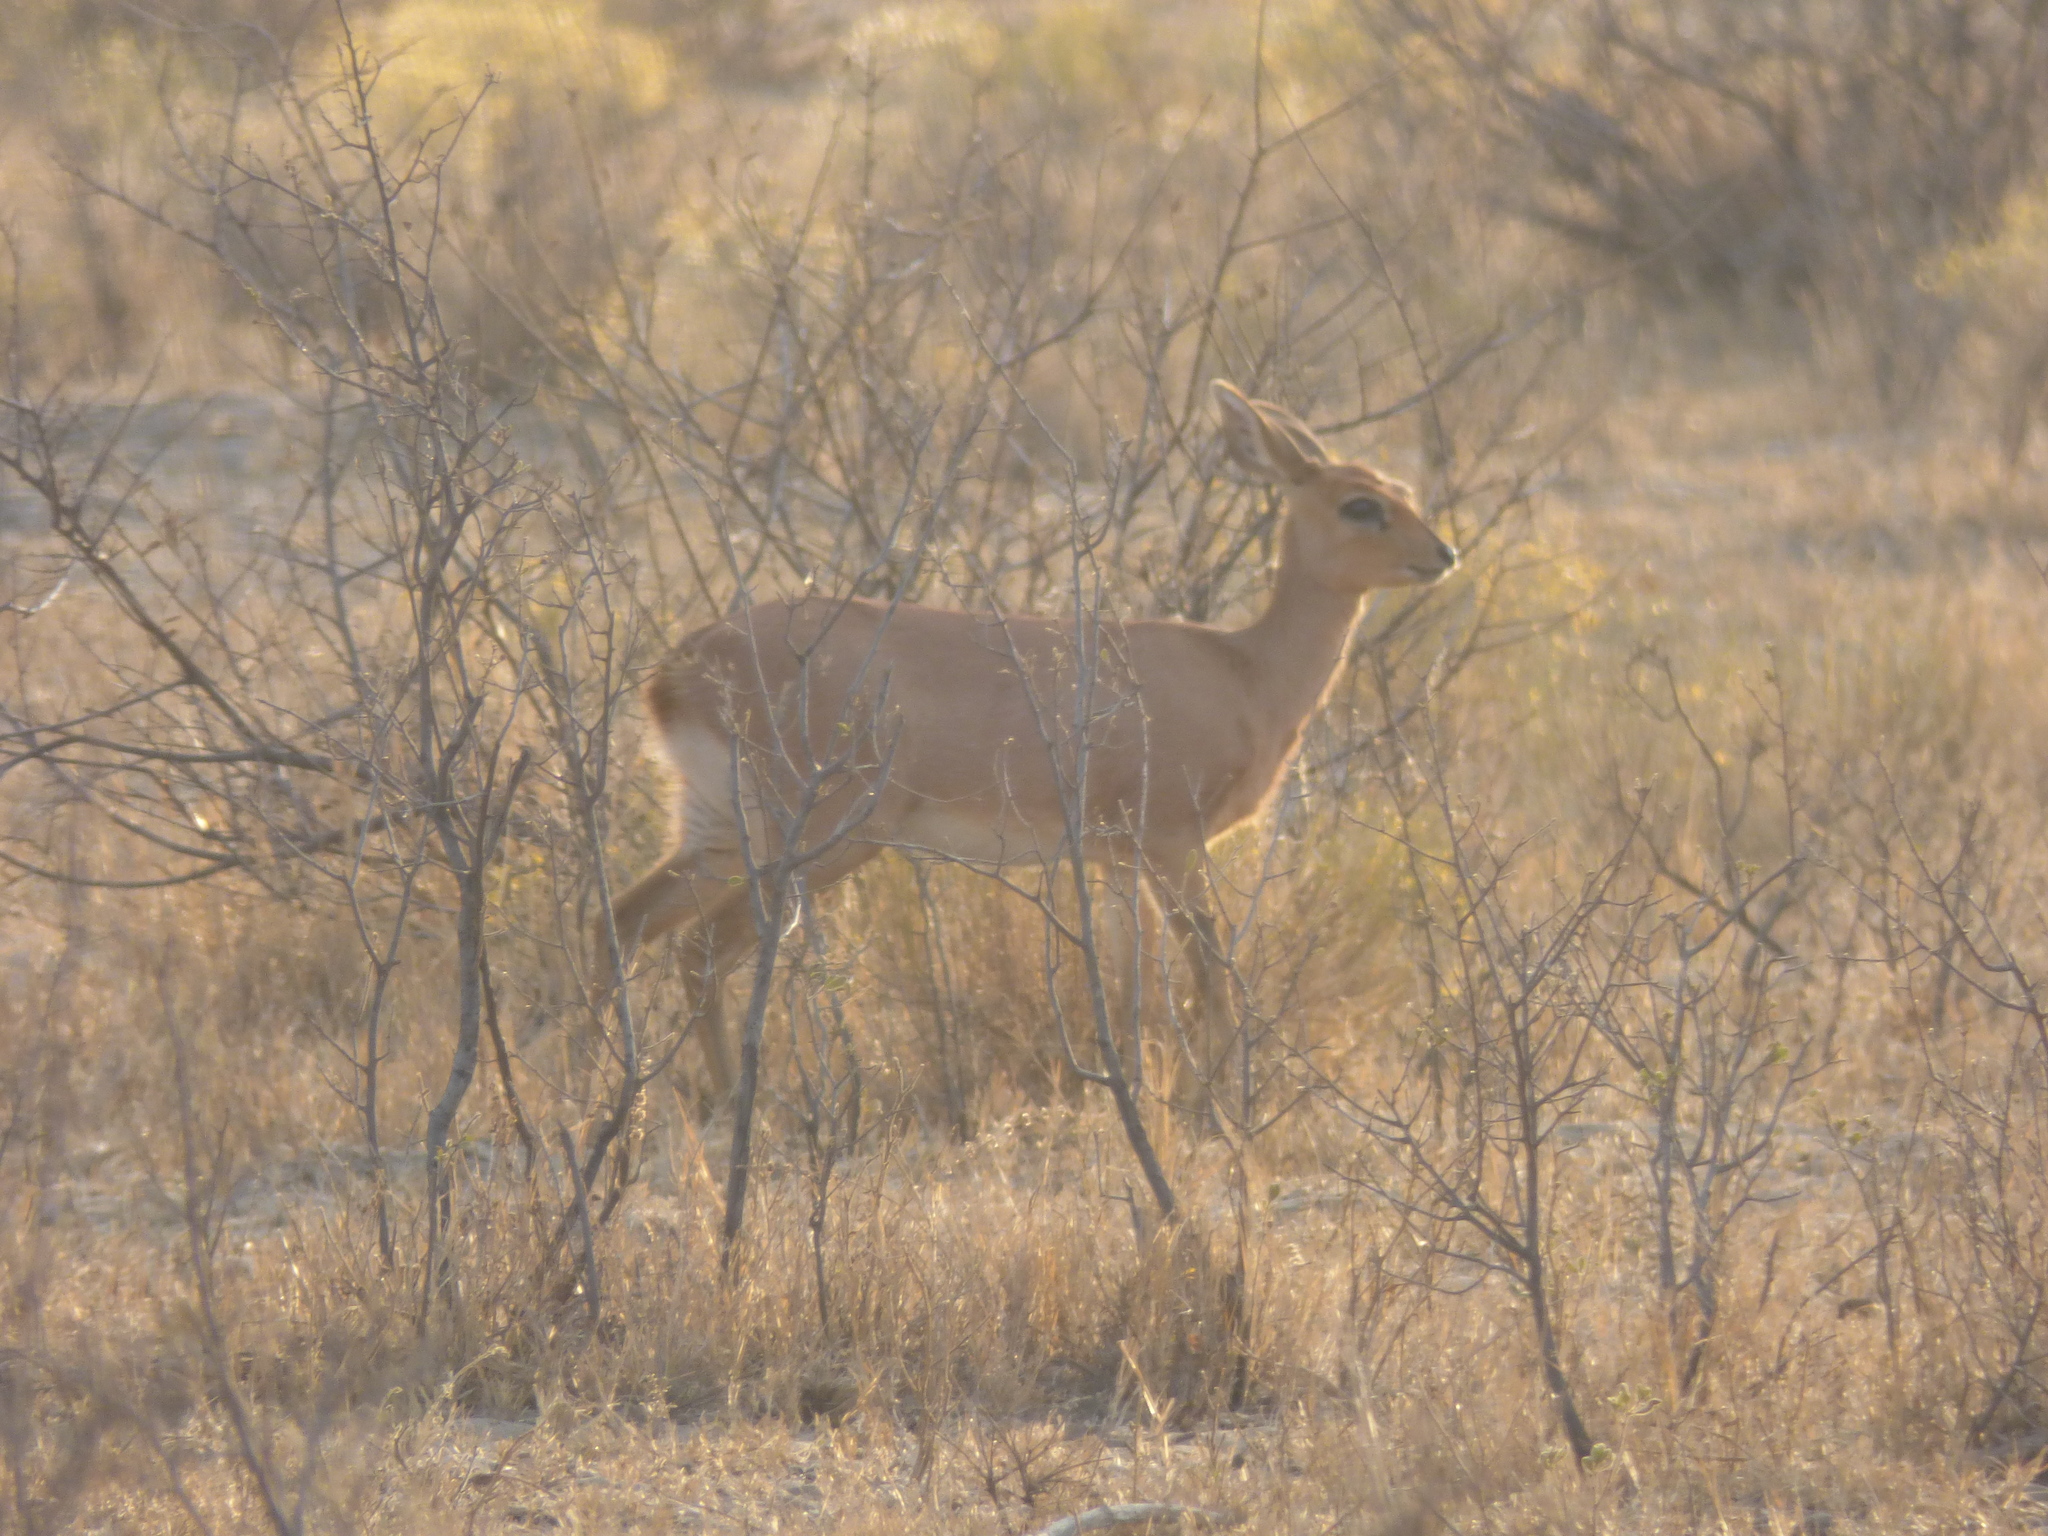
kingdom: Animalia
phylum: Chordata
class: Mammalia
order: Artiodactyla
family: Bovidae
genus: Raphicerus
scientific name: Raphicerus campestris
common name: Steenbok
